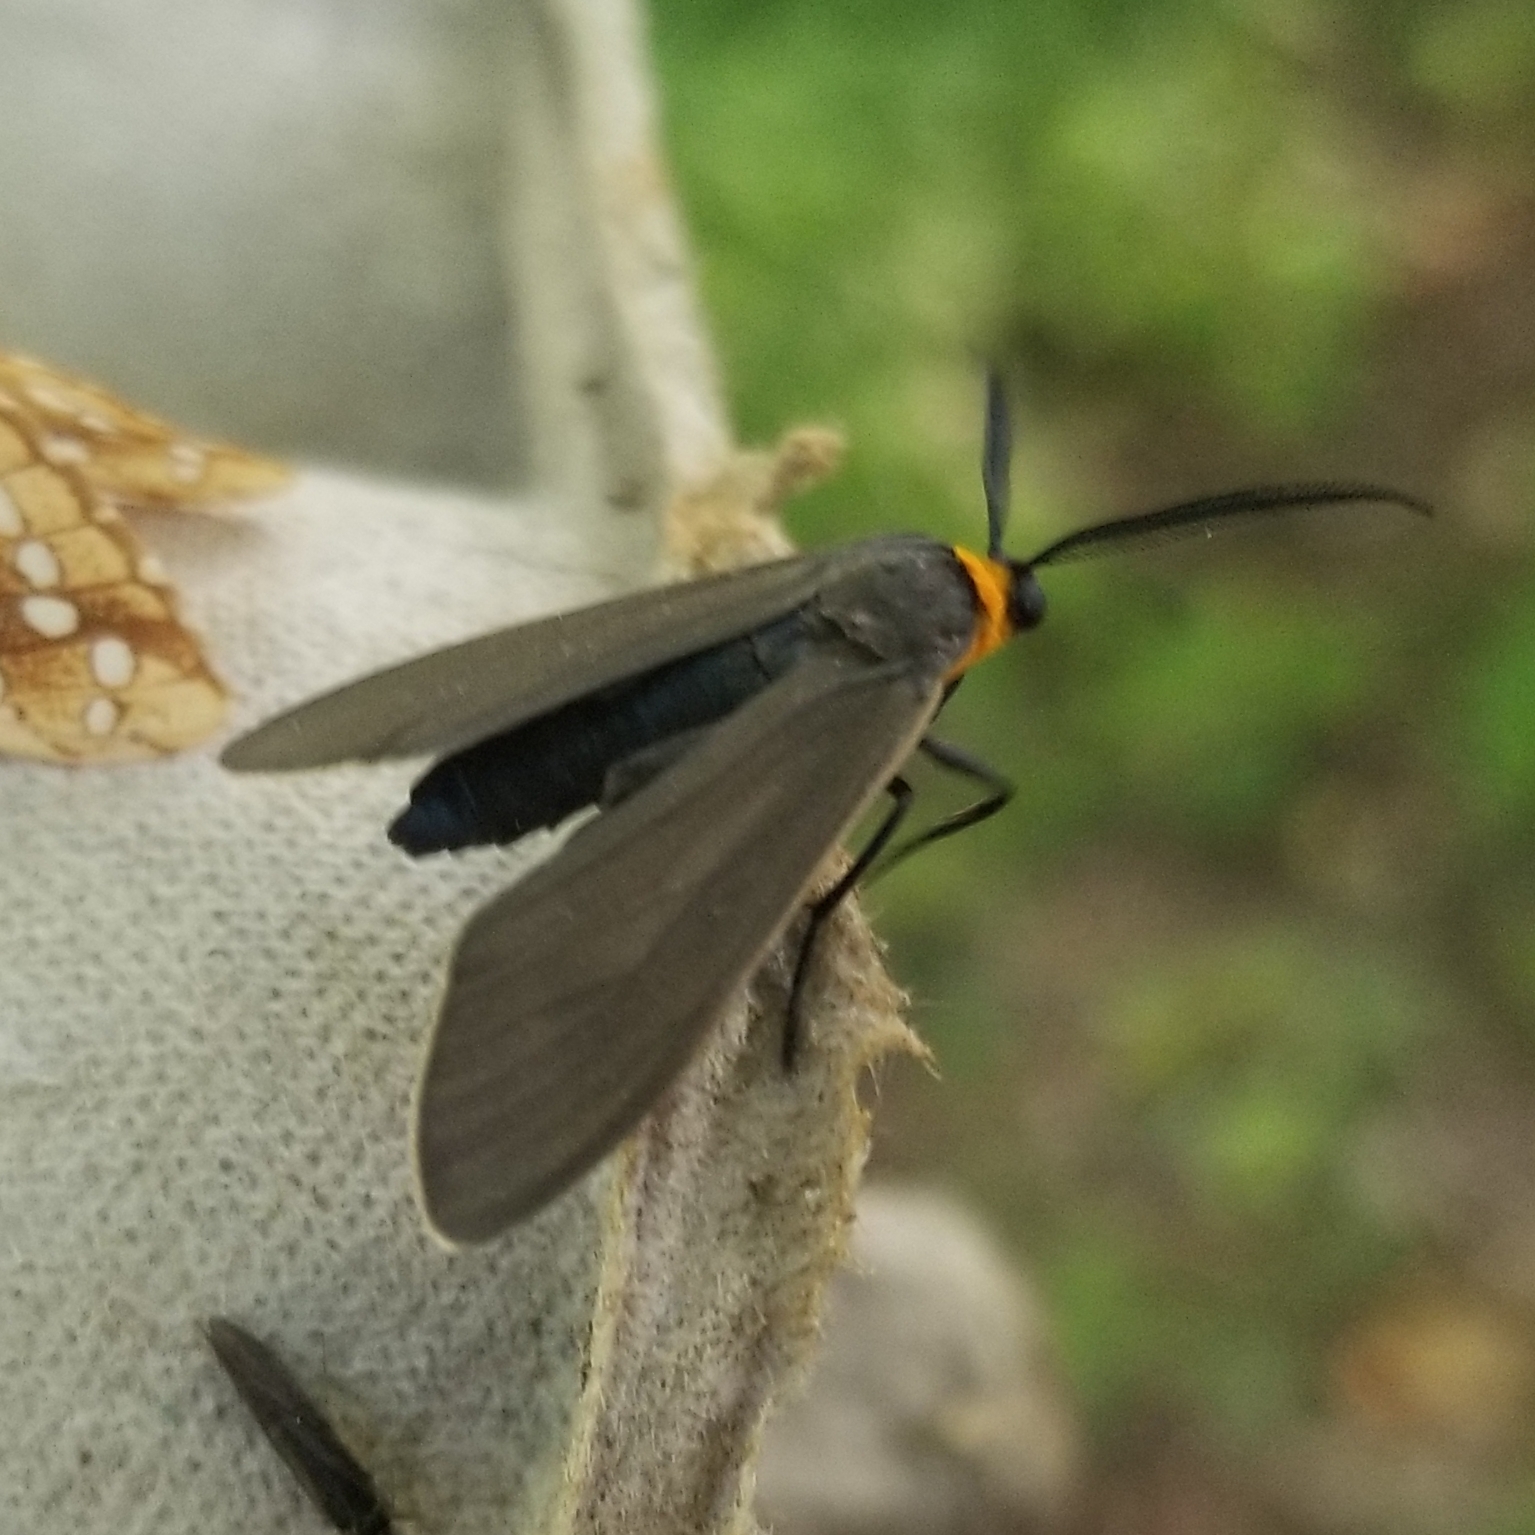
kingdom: Animalia
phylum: Arthropoda
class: Insecta
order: Lepidoptera
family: Erebidae
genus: Cisseps
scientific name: Cisseps fulvicollis
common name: Yellow-collared scape moth
